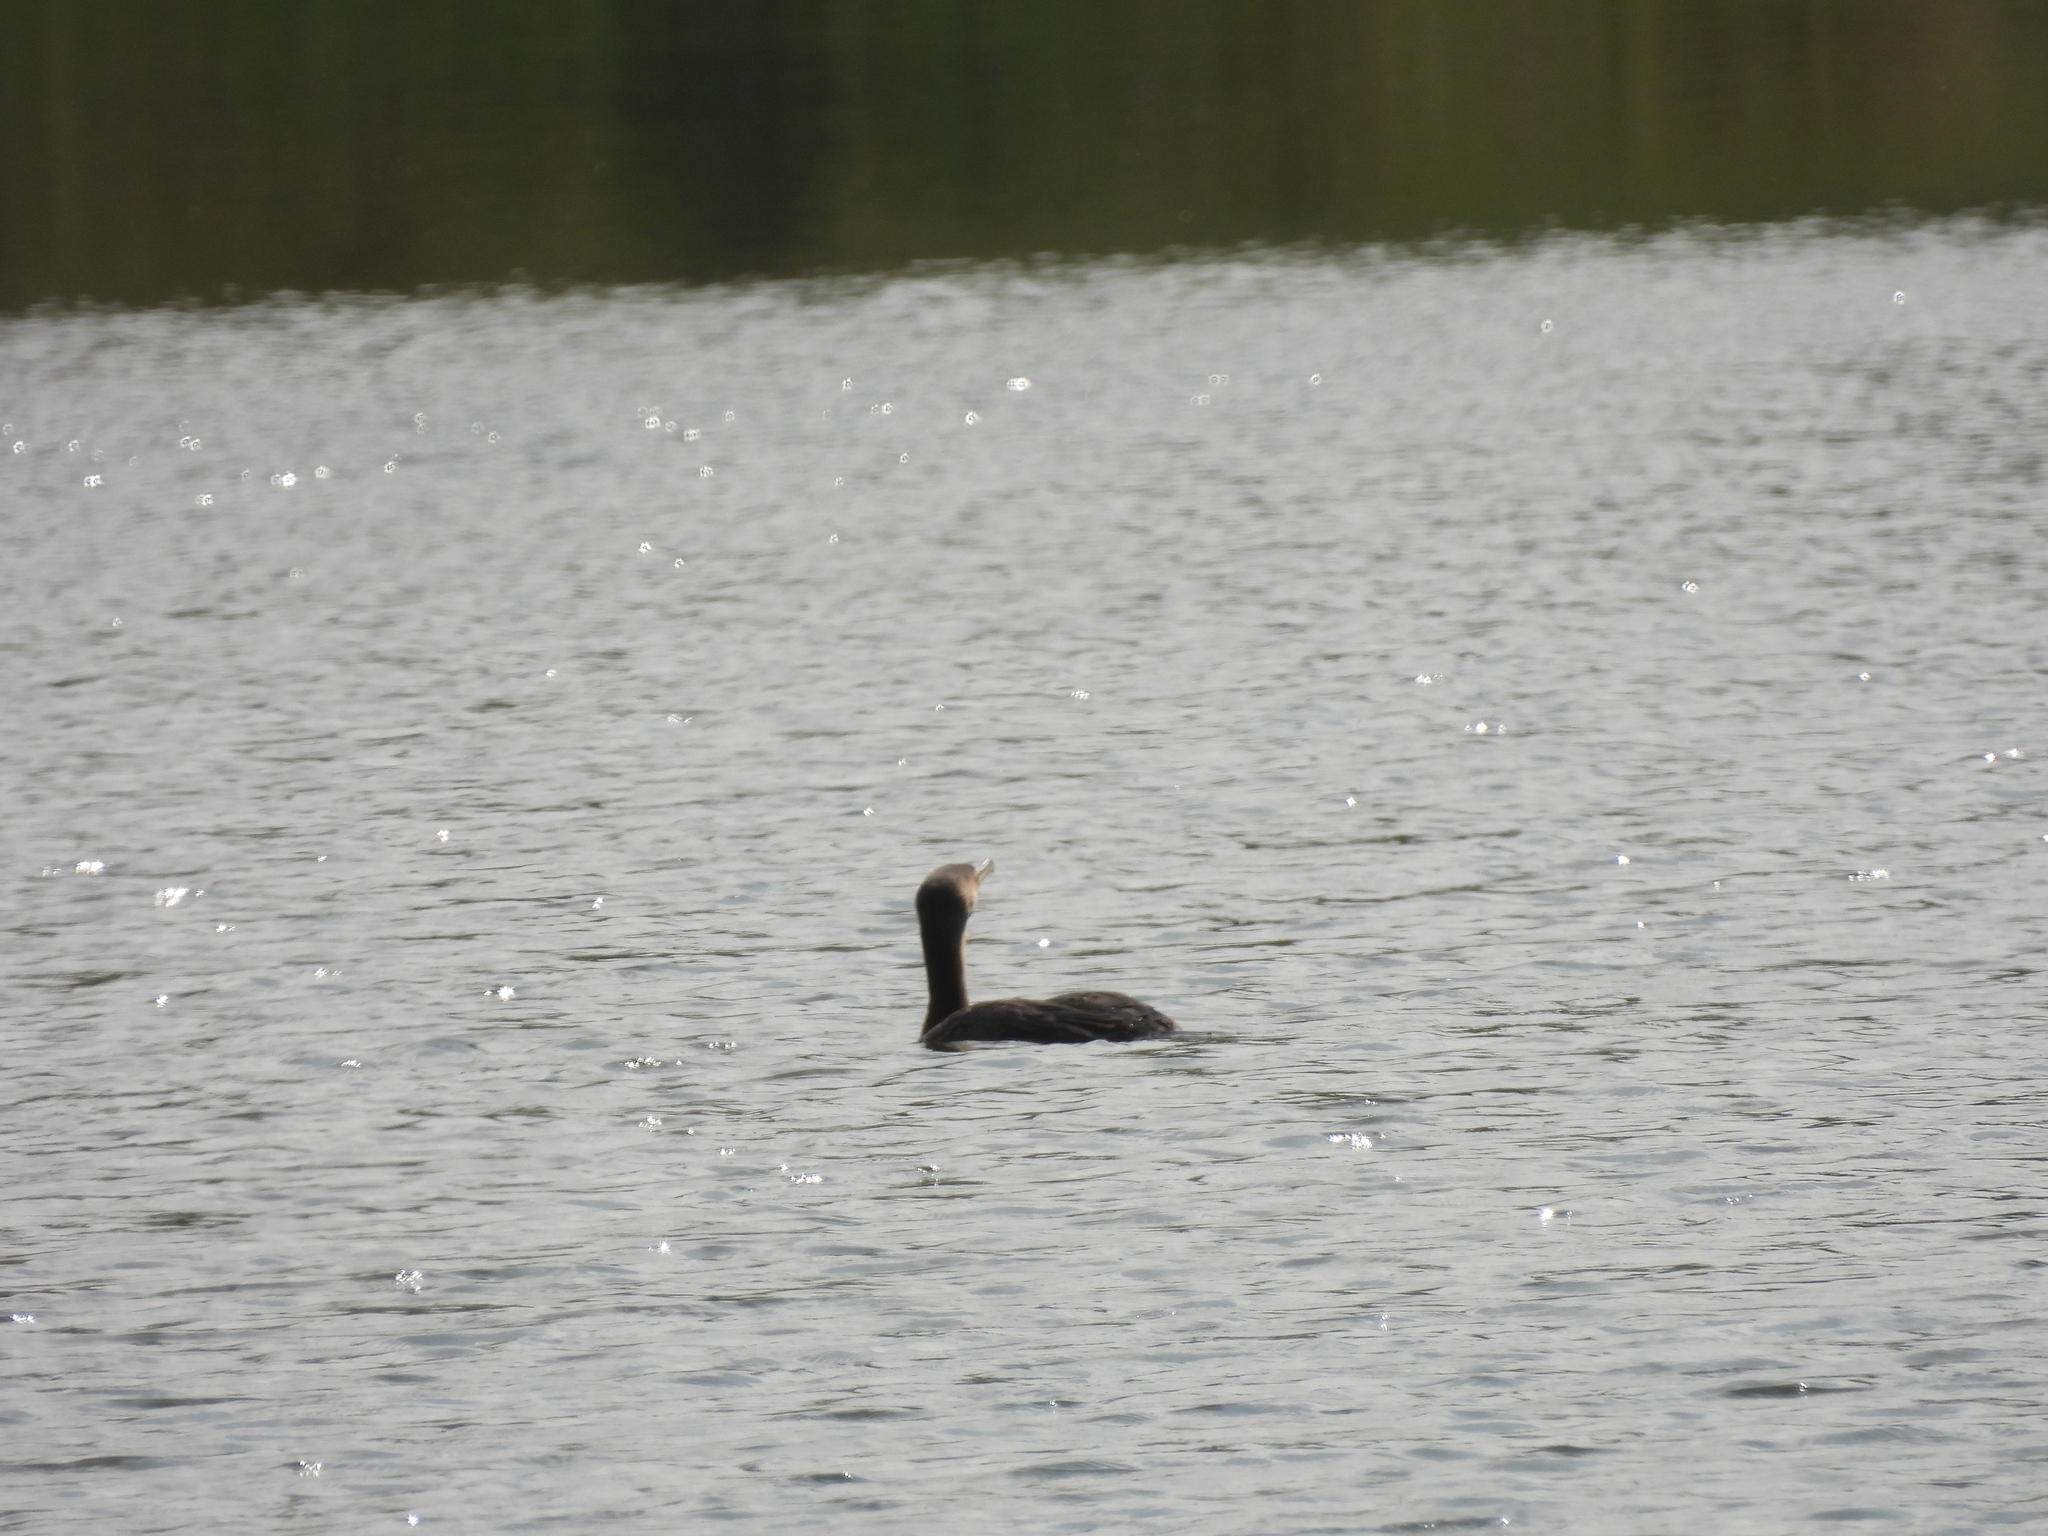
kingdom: Animalia
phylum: Chordata
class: Aves
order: Suliformes
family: Phalacrocoracidae
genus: Phalacrocorax
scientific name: Phalacrocorax auritus
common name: Double-crested cormorant
